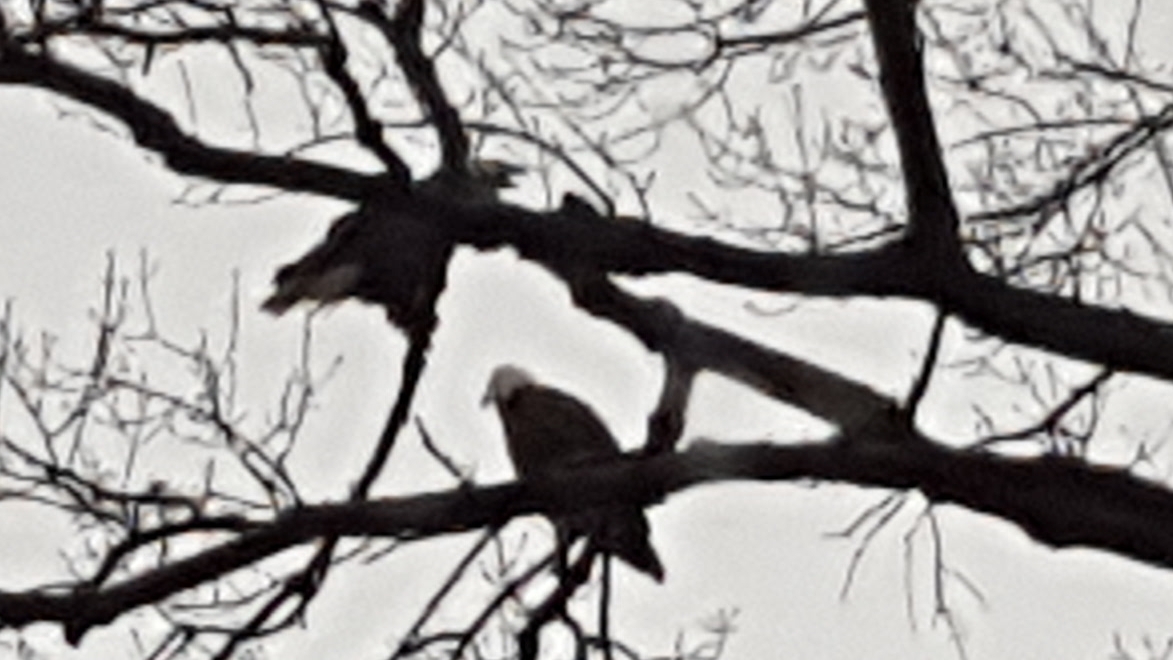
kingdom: Animalia
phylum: Chordata
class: Aves
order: Accipitriformes
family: Accipitridae
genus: Haliaeetus
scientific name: Haliaeetus leucocephalus
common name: Bald eagle
